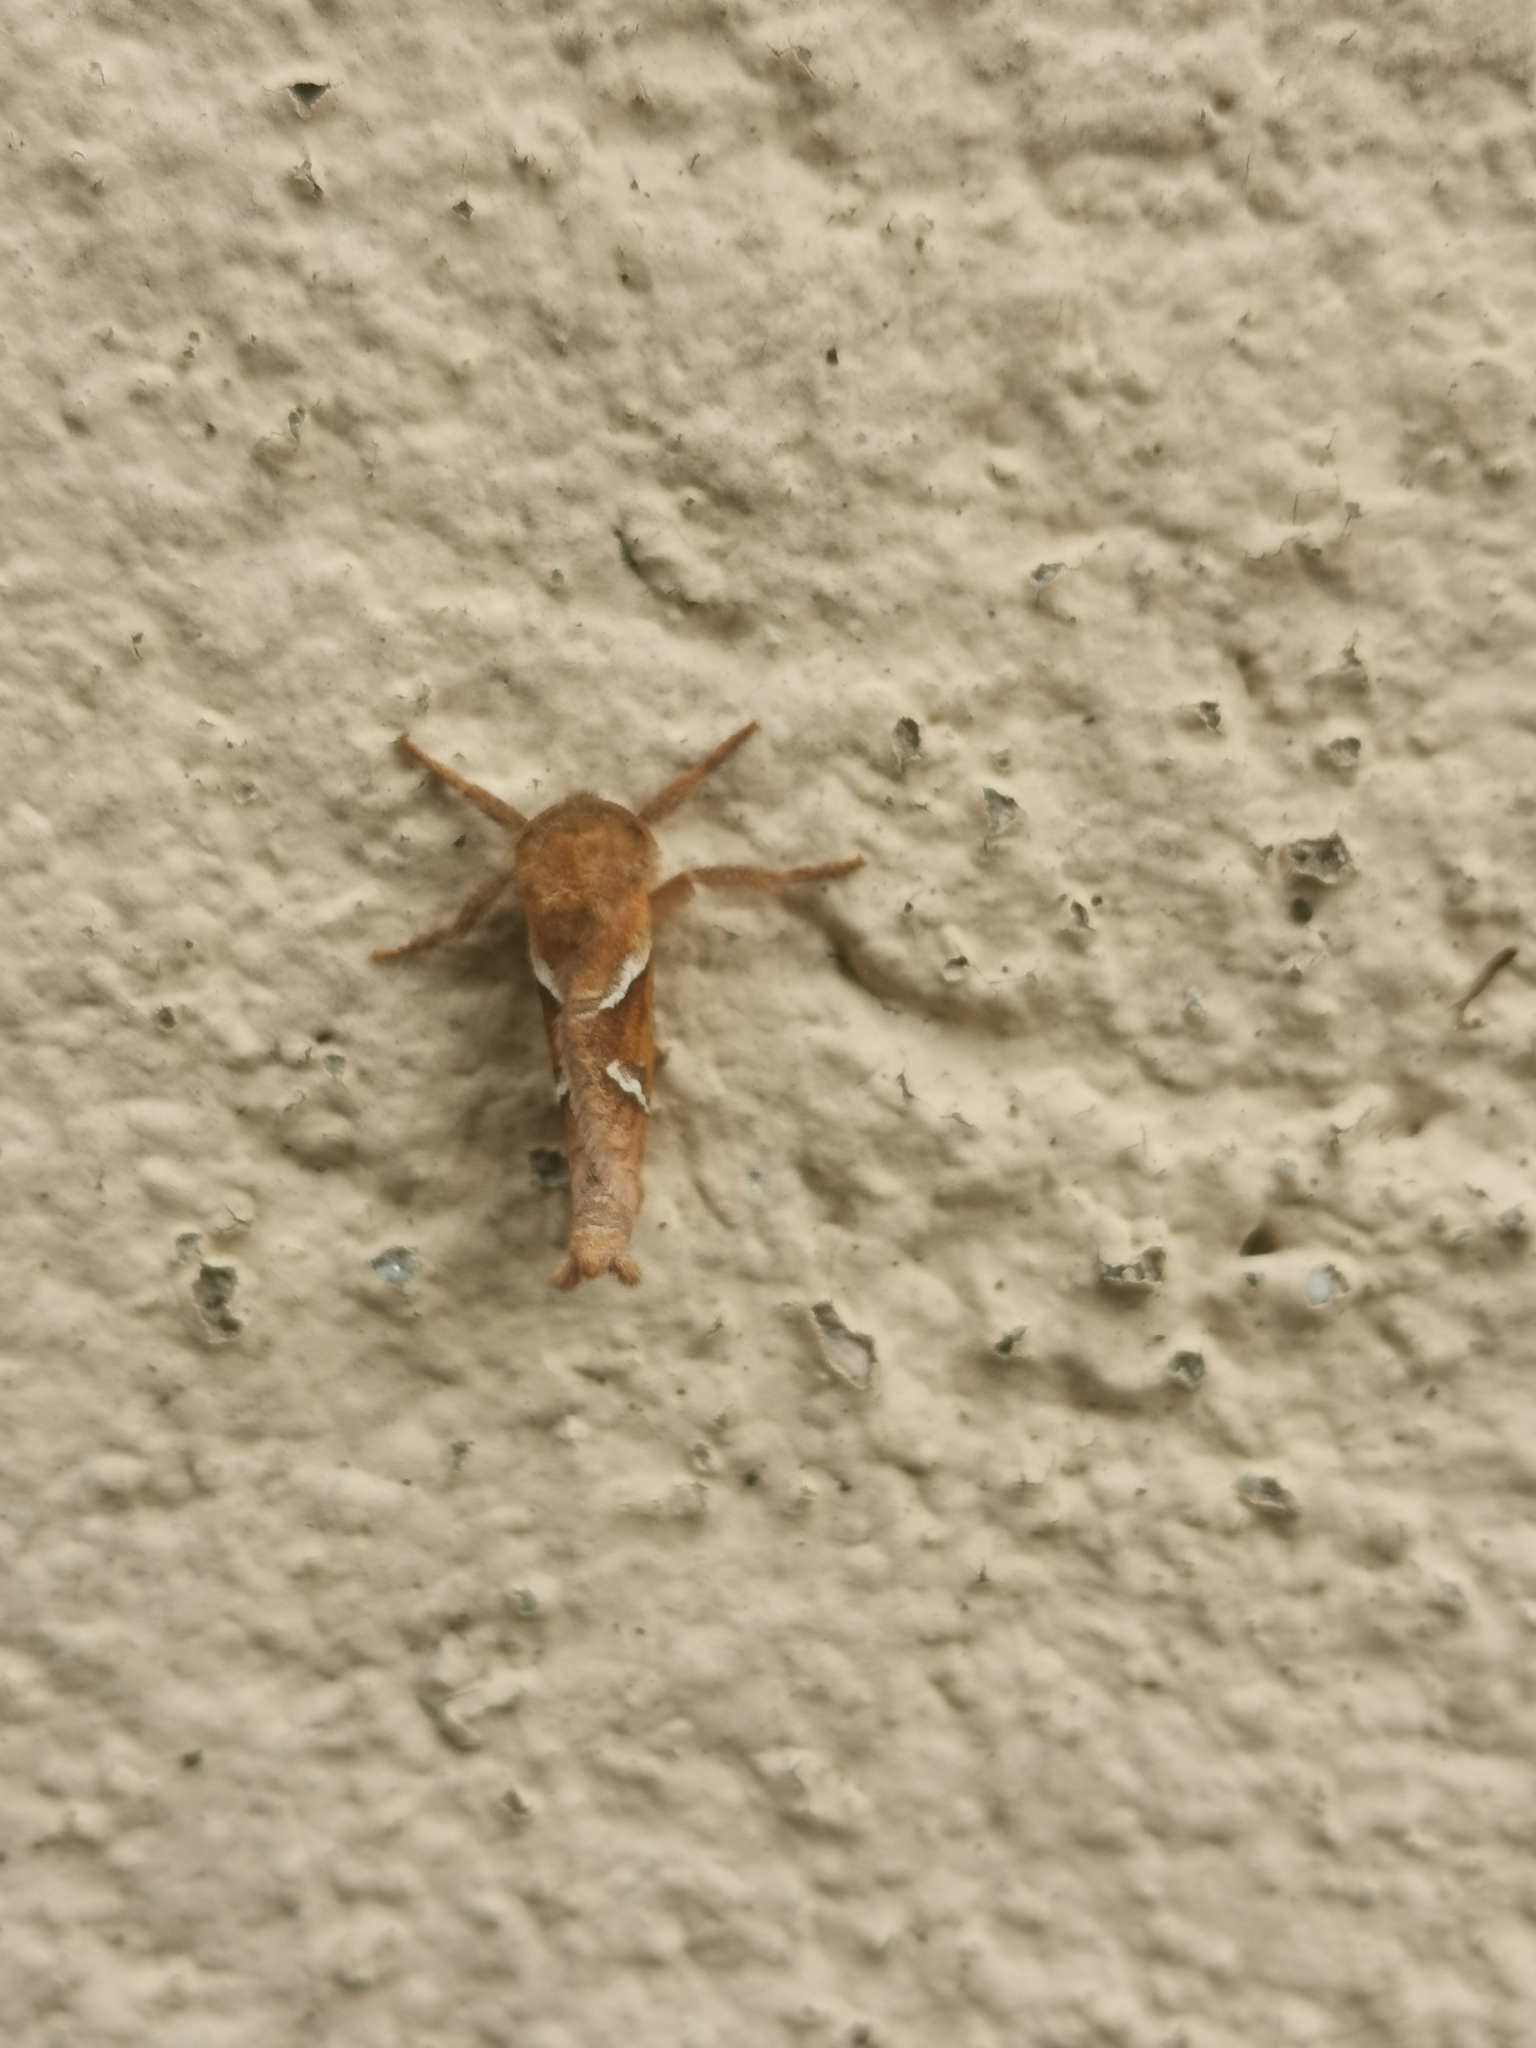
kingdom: Animalia
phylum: Arthropoda
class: Insecta
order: Lepidoptera
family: Hepialidae
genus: Triodia
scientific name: Triodia sylvina
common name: Orange swift
